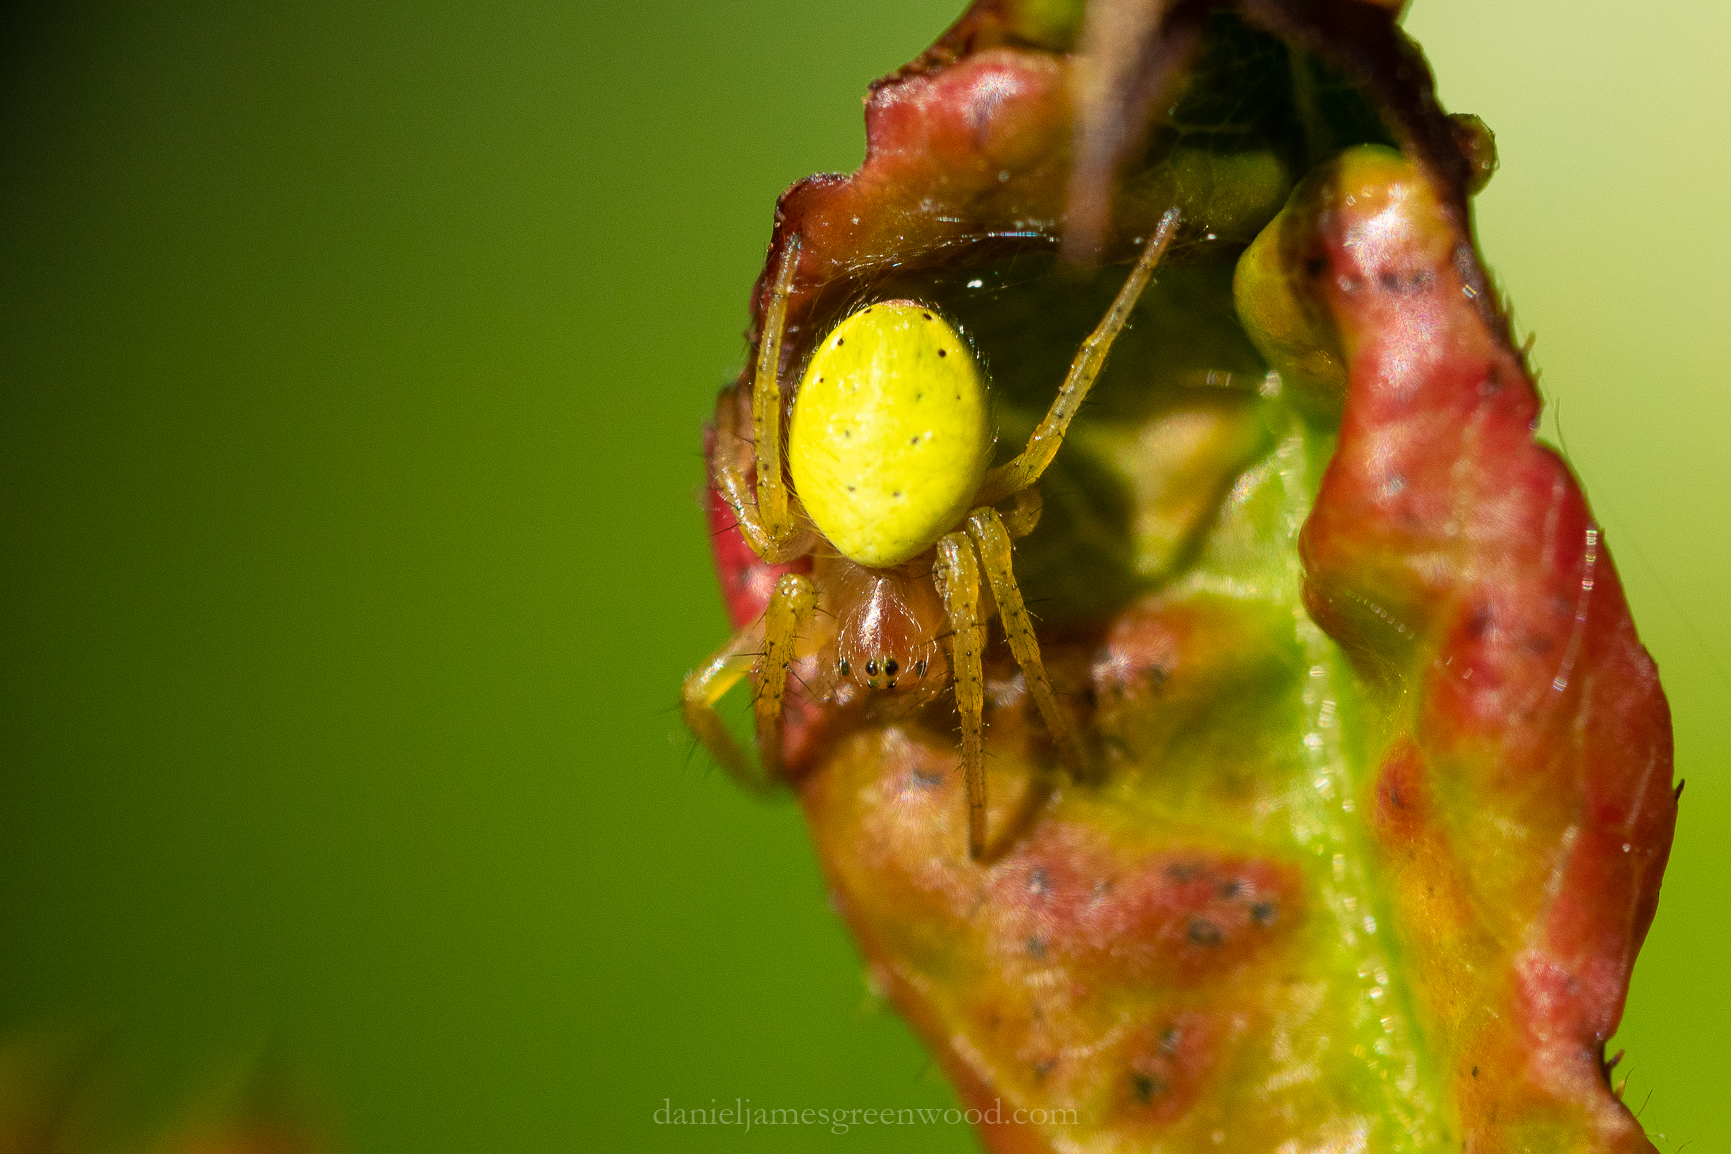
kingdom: Animalia
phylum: Arthropoda
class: Arachnida
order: Araneae
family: Araneidae
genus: Araniella
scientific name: Araniella cucurbitina
